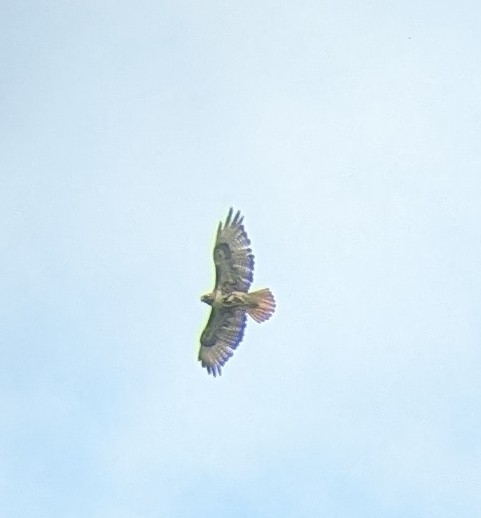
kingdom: Animalia
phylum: Chordata
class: Aves
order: Accipitriformes
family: Accipitridae
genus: Buteo
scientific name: Buteo jamaicensis
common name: Red-tailed hawk
